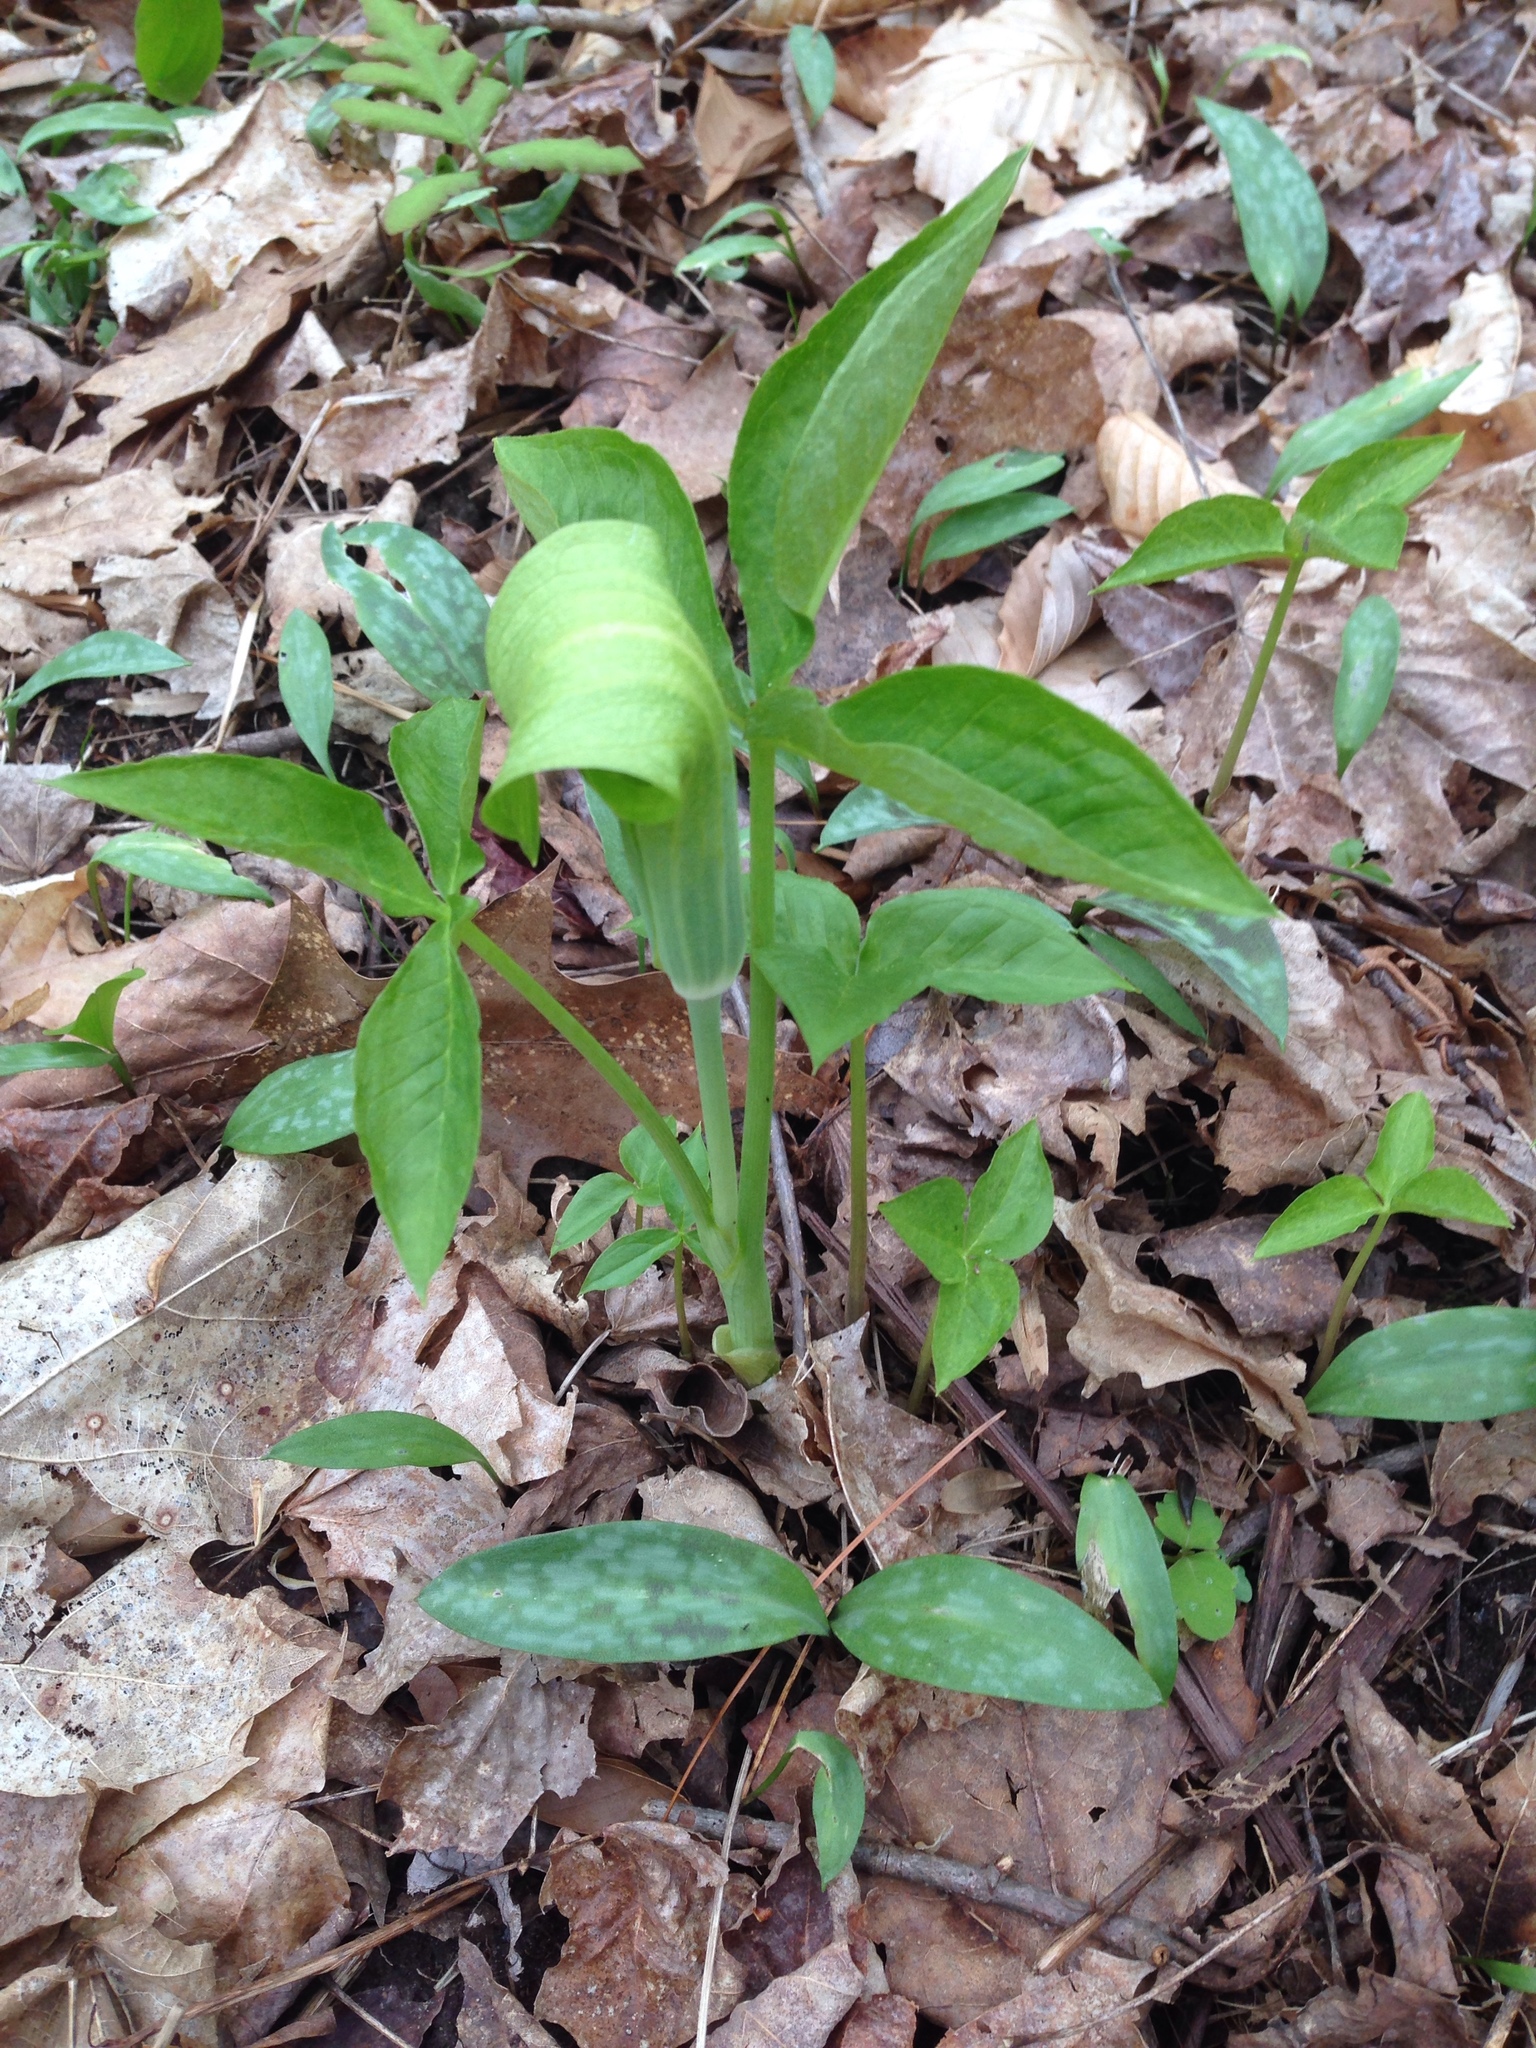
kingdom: Plantae
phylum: Tracheophyta
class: Liliopsida
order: Alismatales
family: Araceae
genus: Arisaema
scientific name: Arisaema triphyllum
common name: Jack-in-the-pulpit
